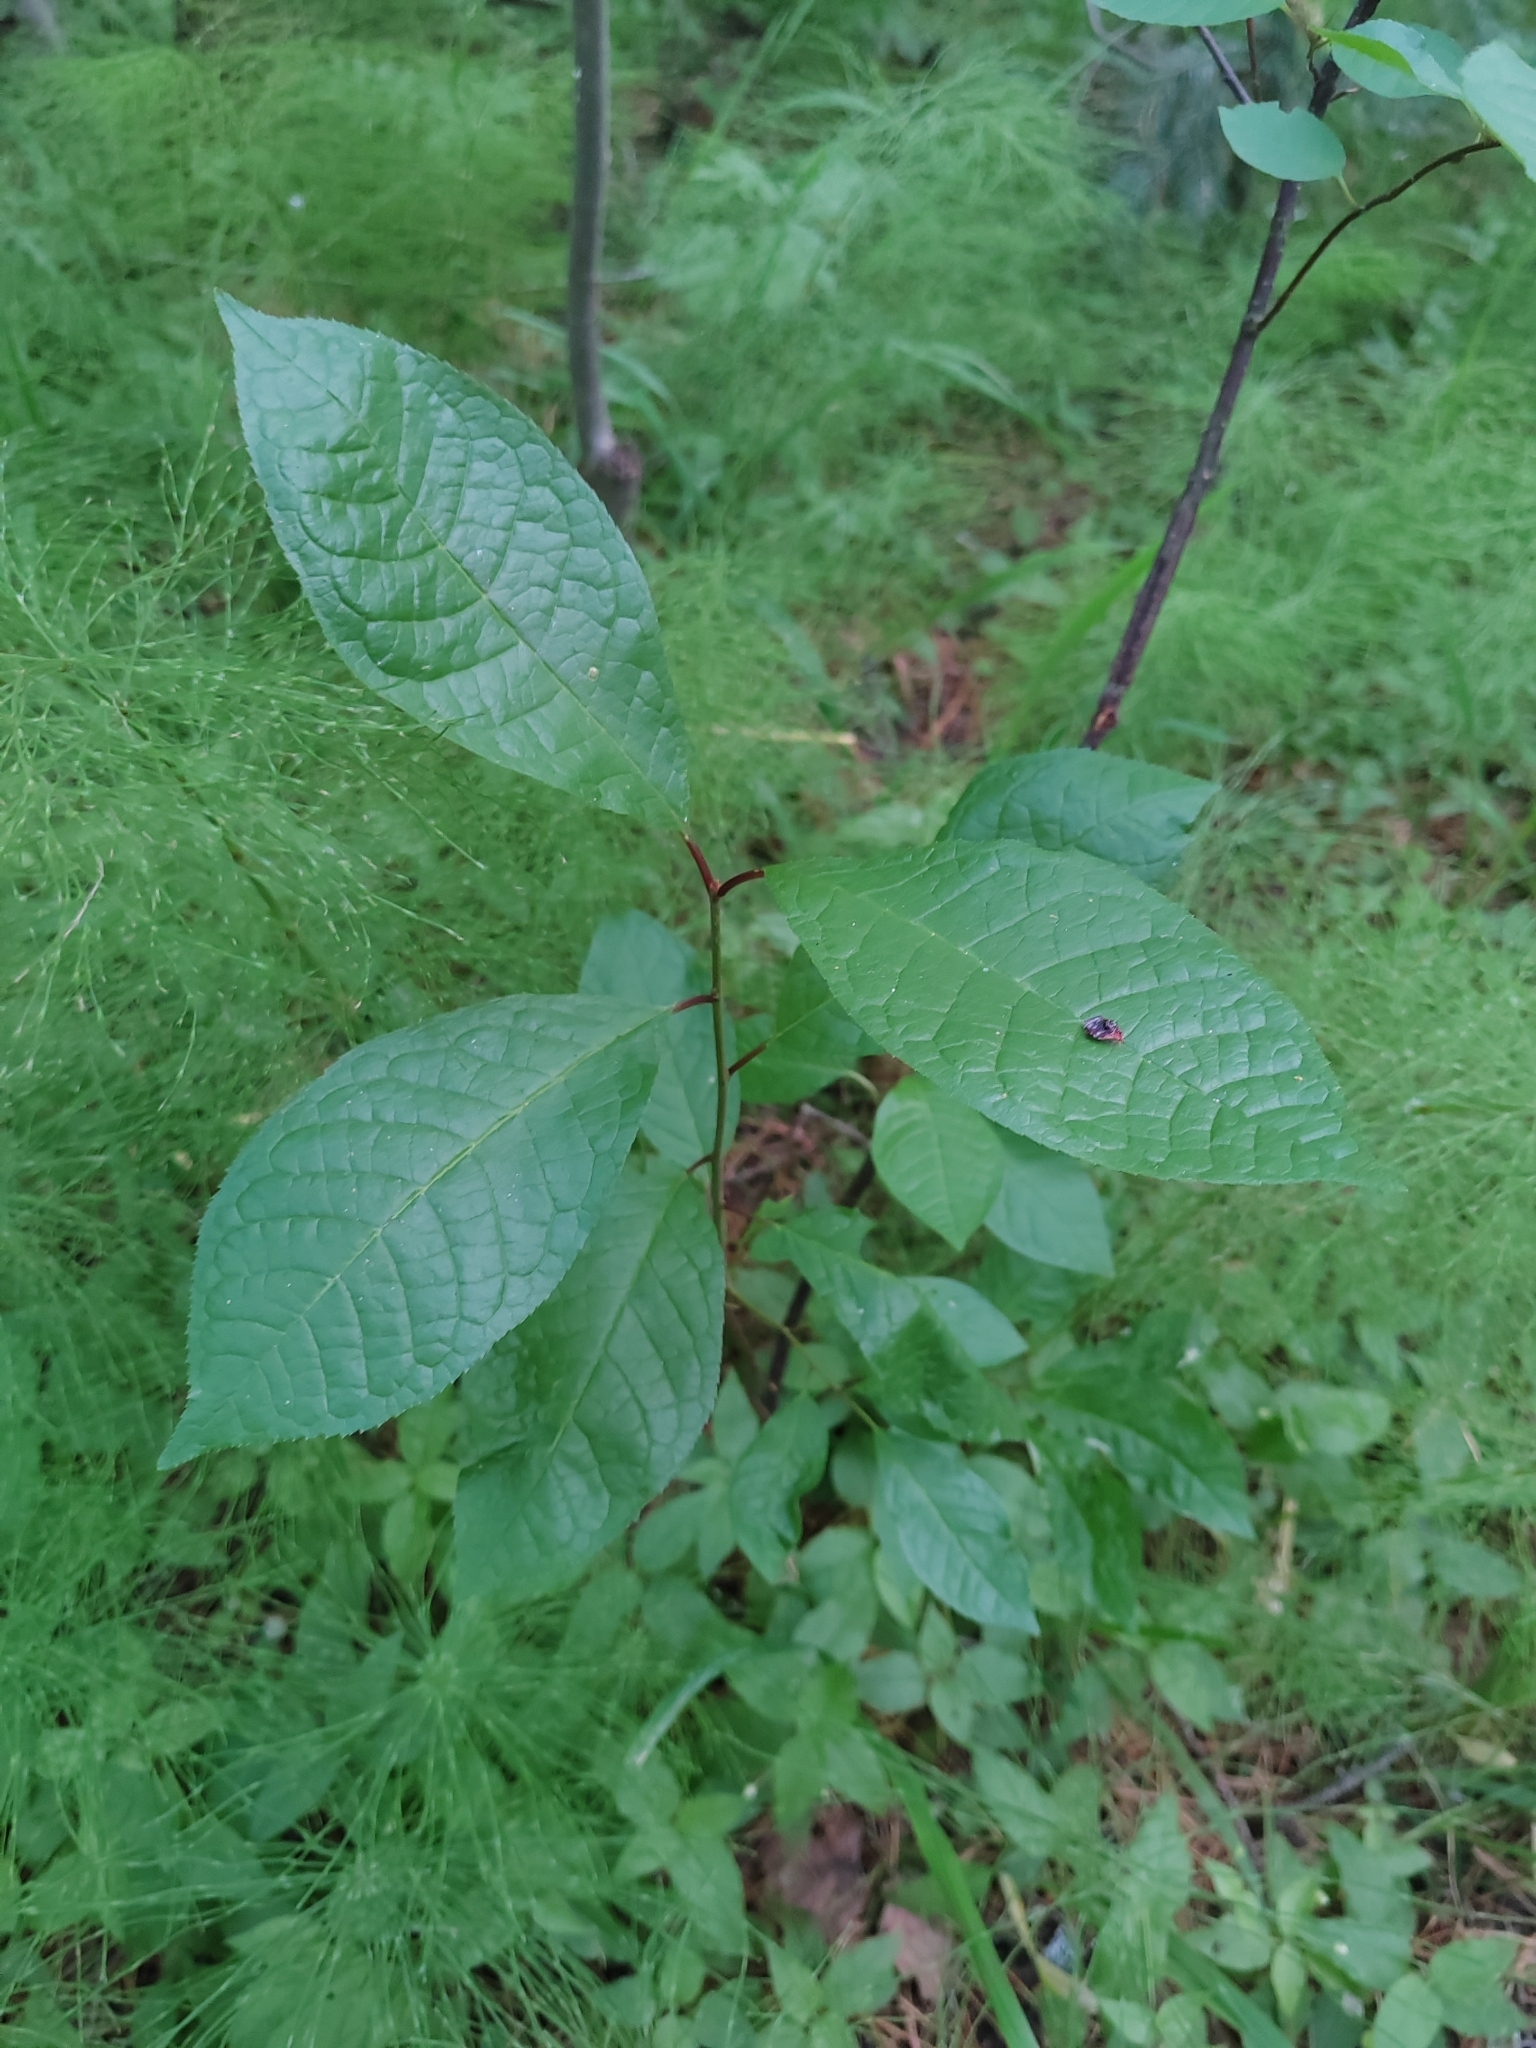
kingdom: Plantae
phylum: Tracheophyta
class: Magnoliopsida
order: Rosales
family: Rosaceae
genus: Prunus
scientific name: Prunus padus
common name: Bird cherry
